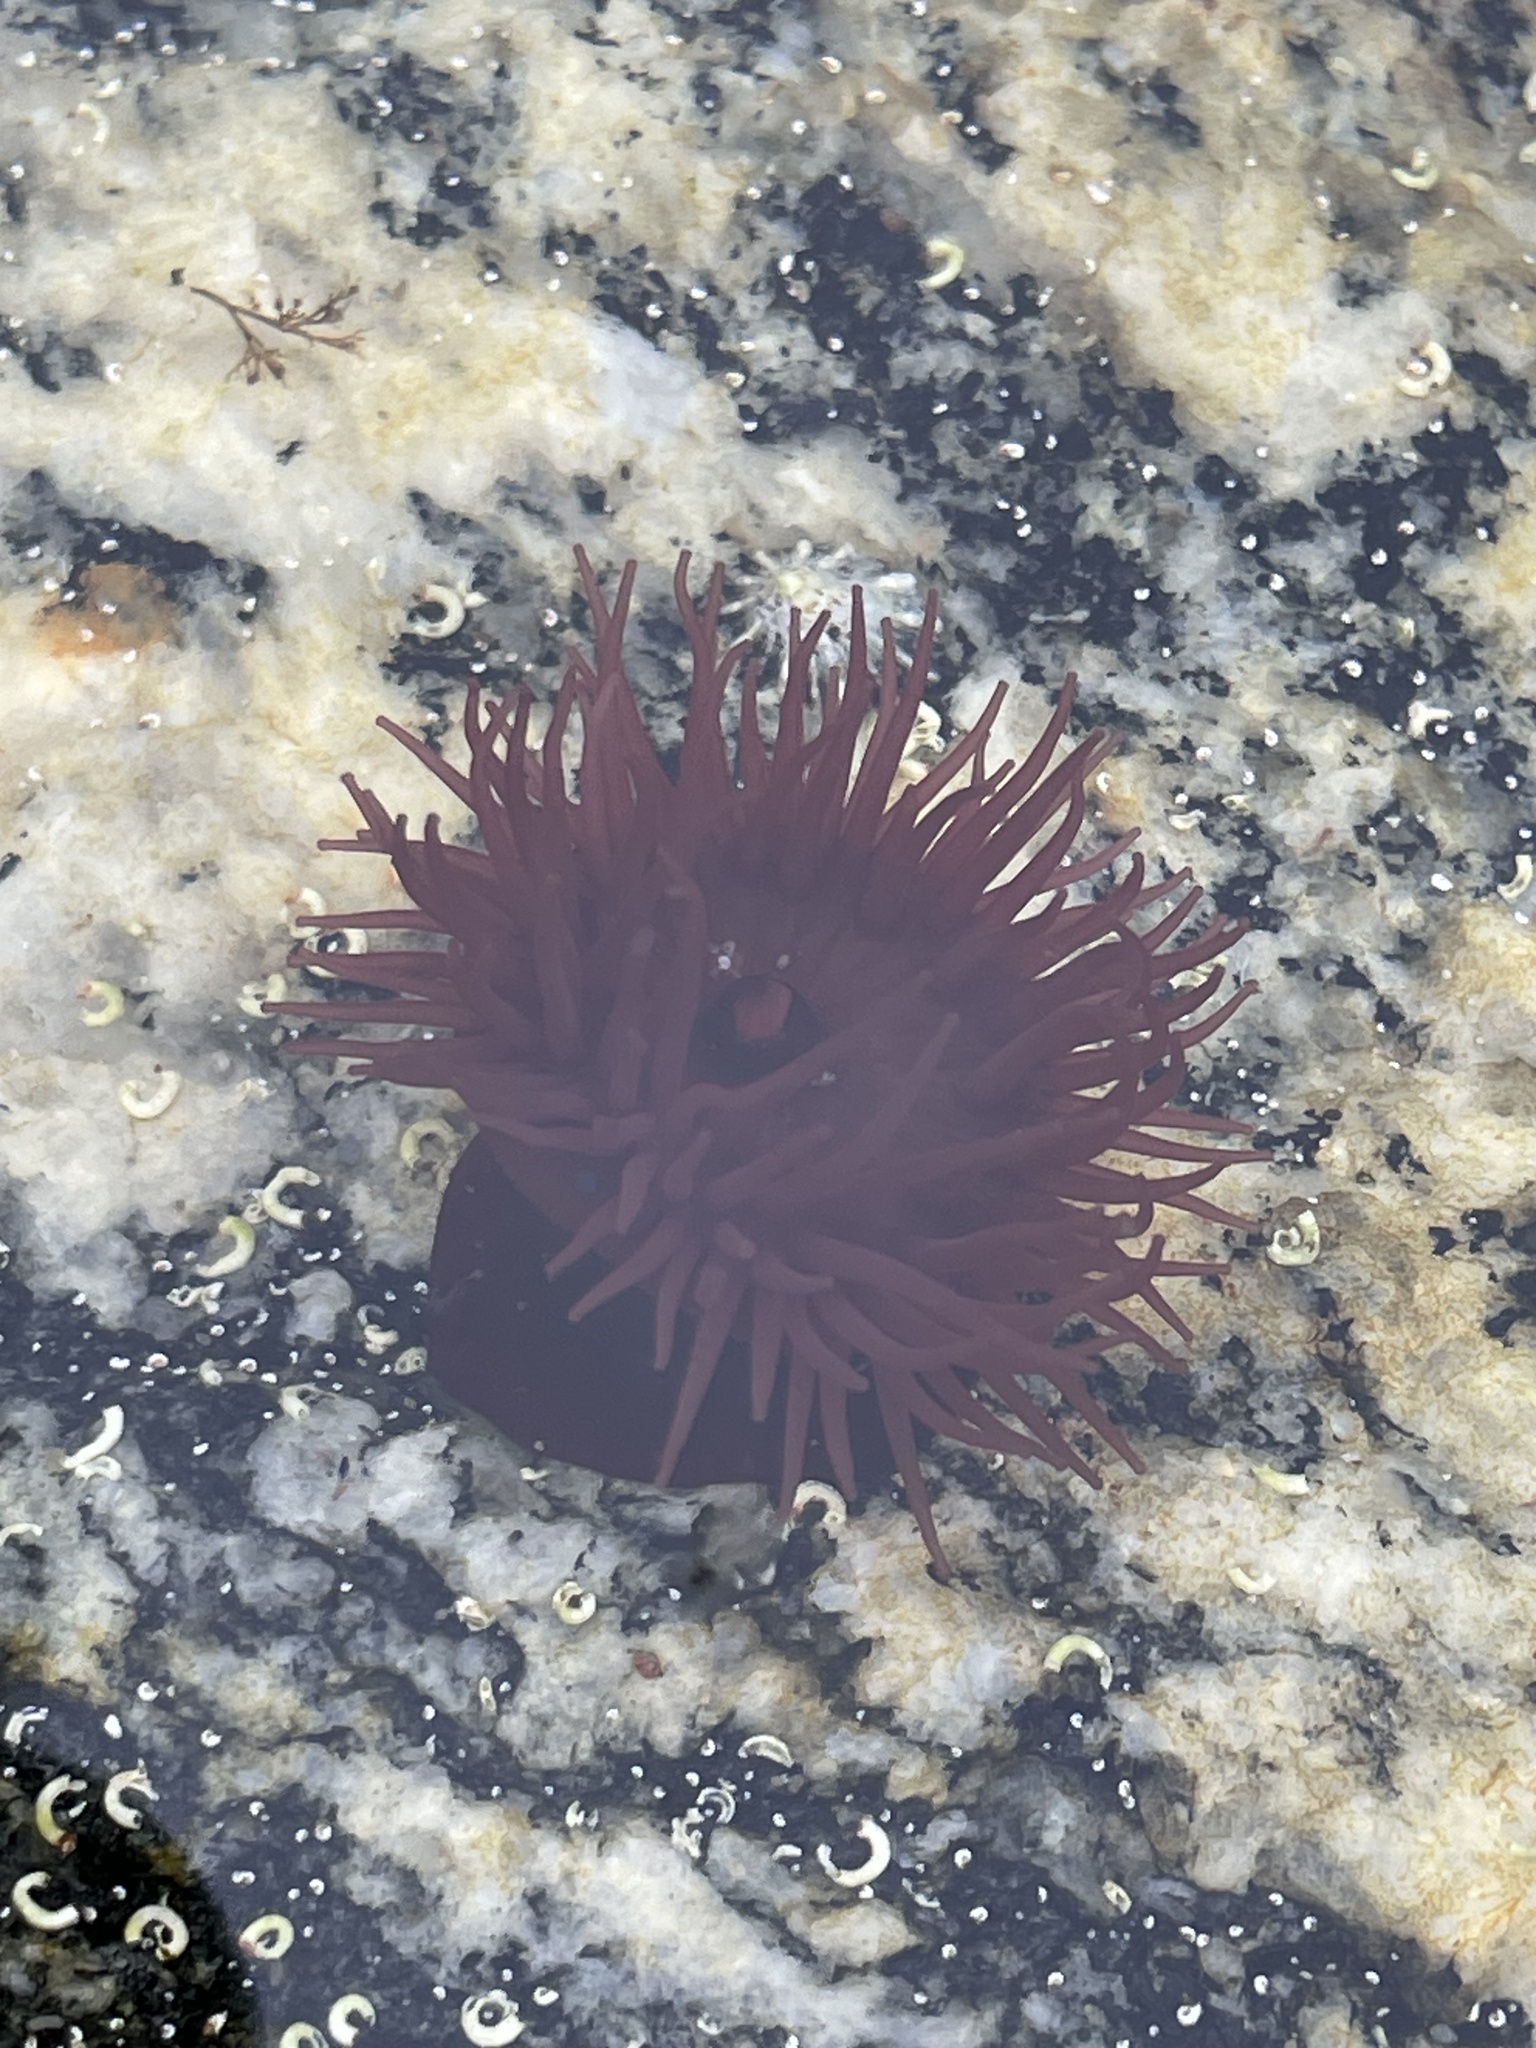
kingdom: Animalia
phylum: Cnidaria
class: Anthozoa
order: Actiniaria
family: Actiniidae
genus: Actinia
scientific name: Actinia equina
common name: Beadlet anemone
